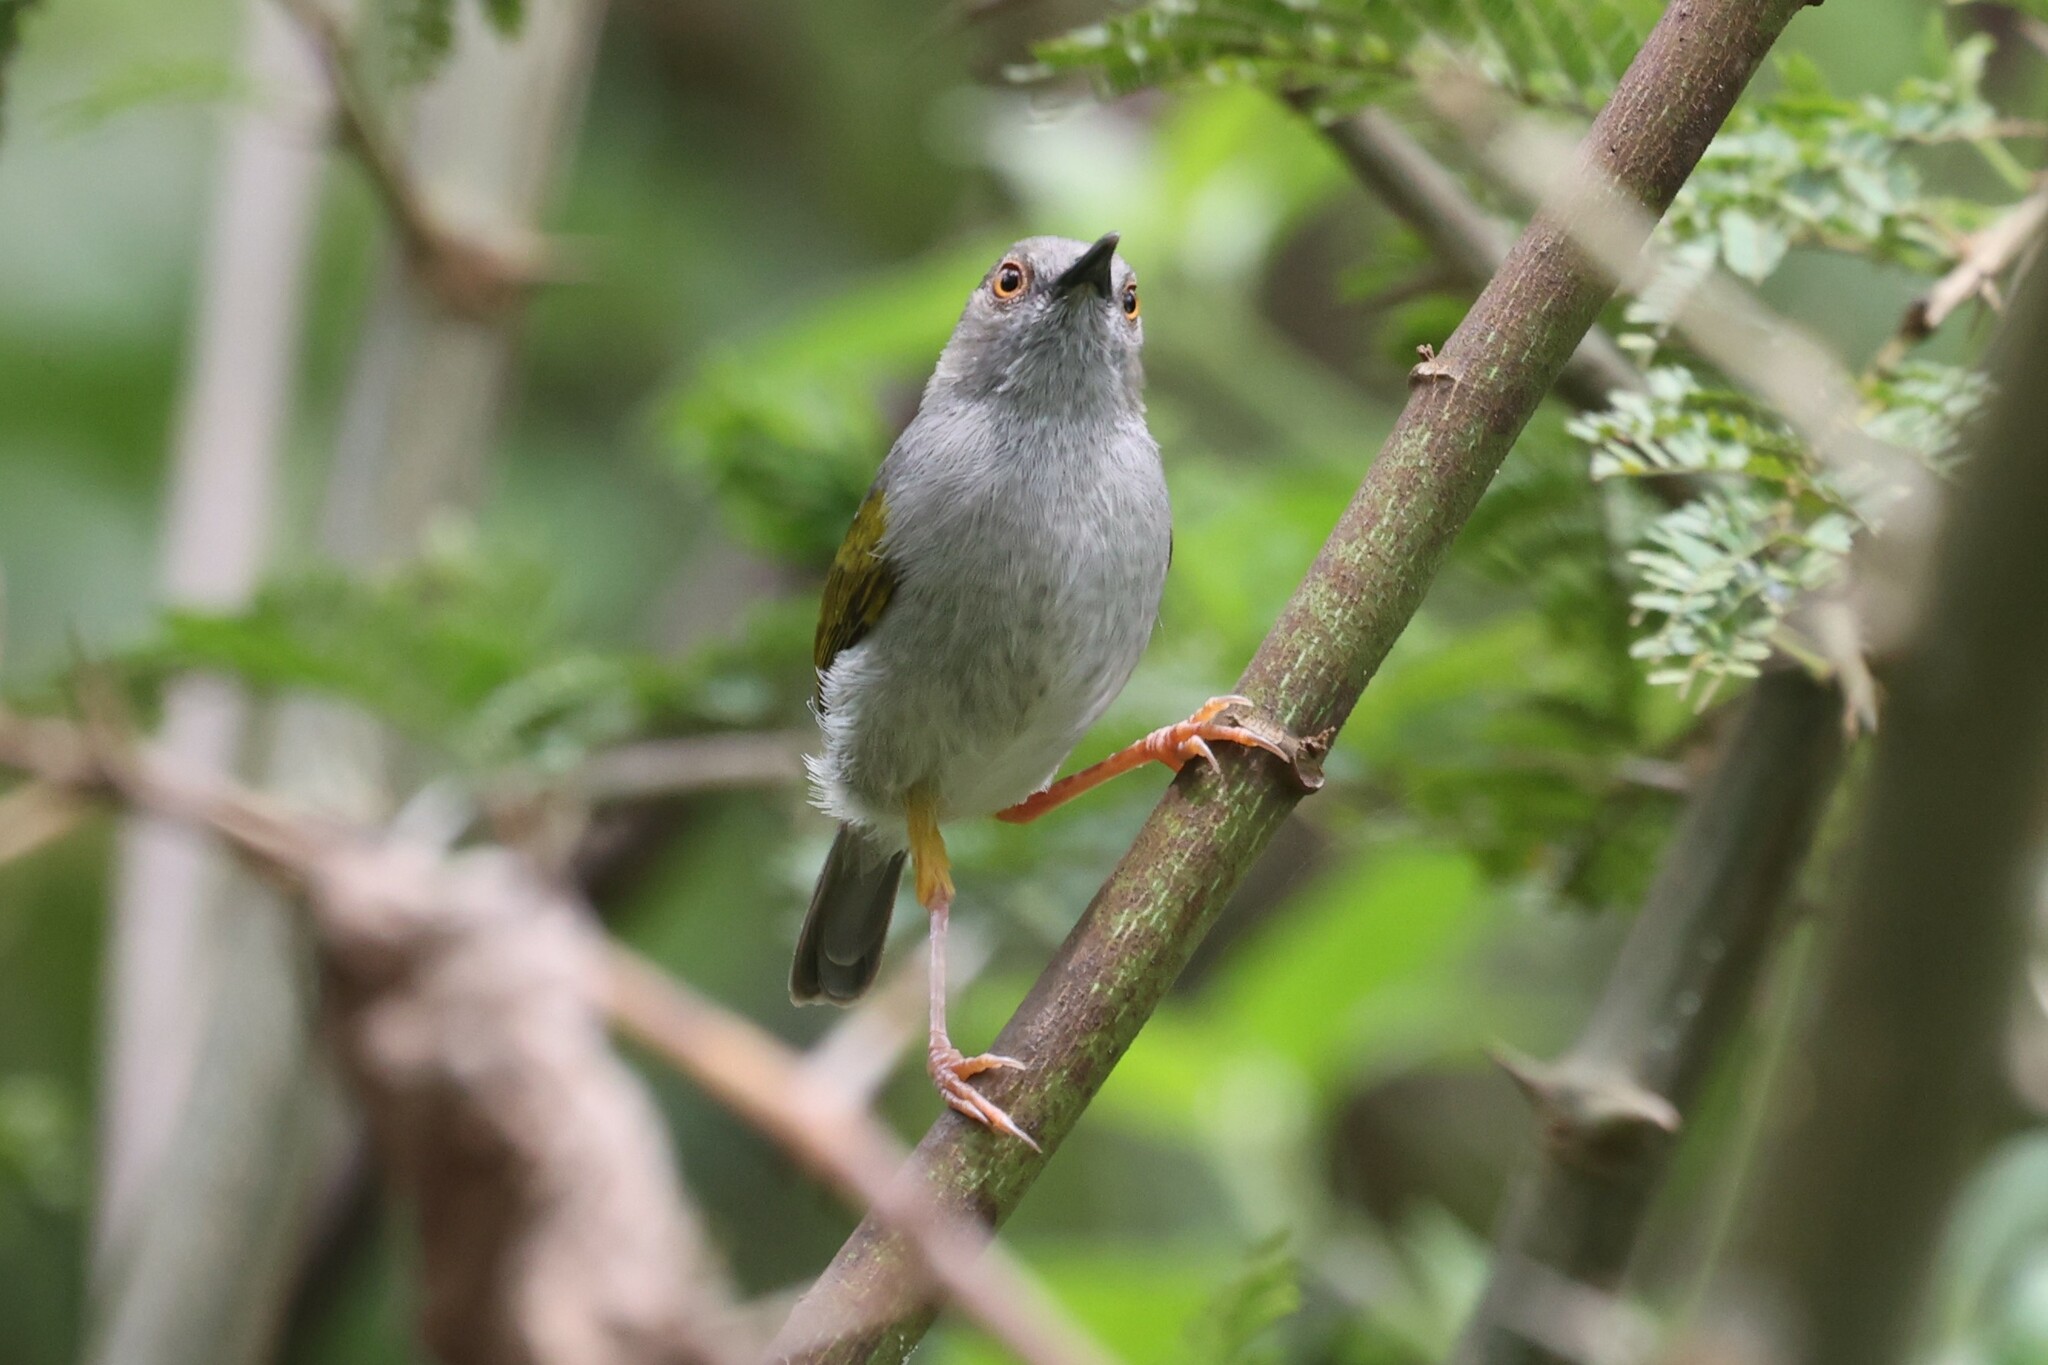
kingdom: Animalia
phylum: Chordata
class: Aves
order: Passeriformes
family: Cisticolidae
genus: Camaroptera
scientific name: Camaroptera brachyura
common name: Green-backed camaroptera
